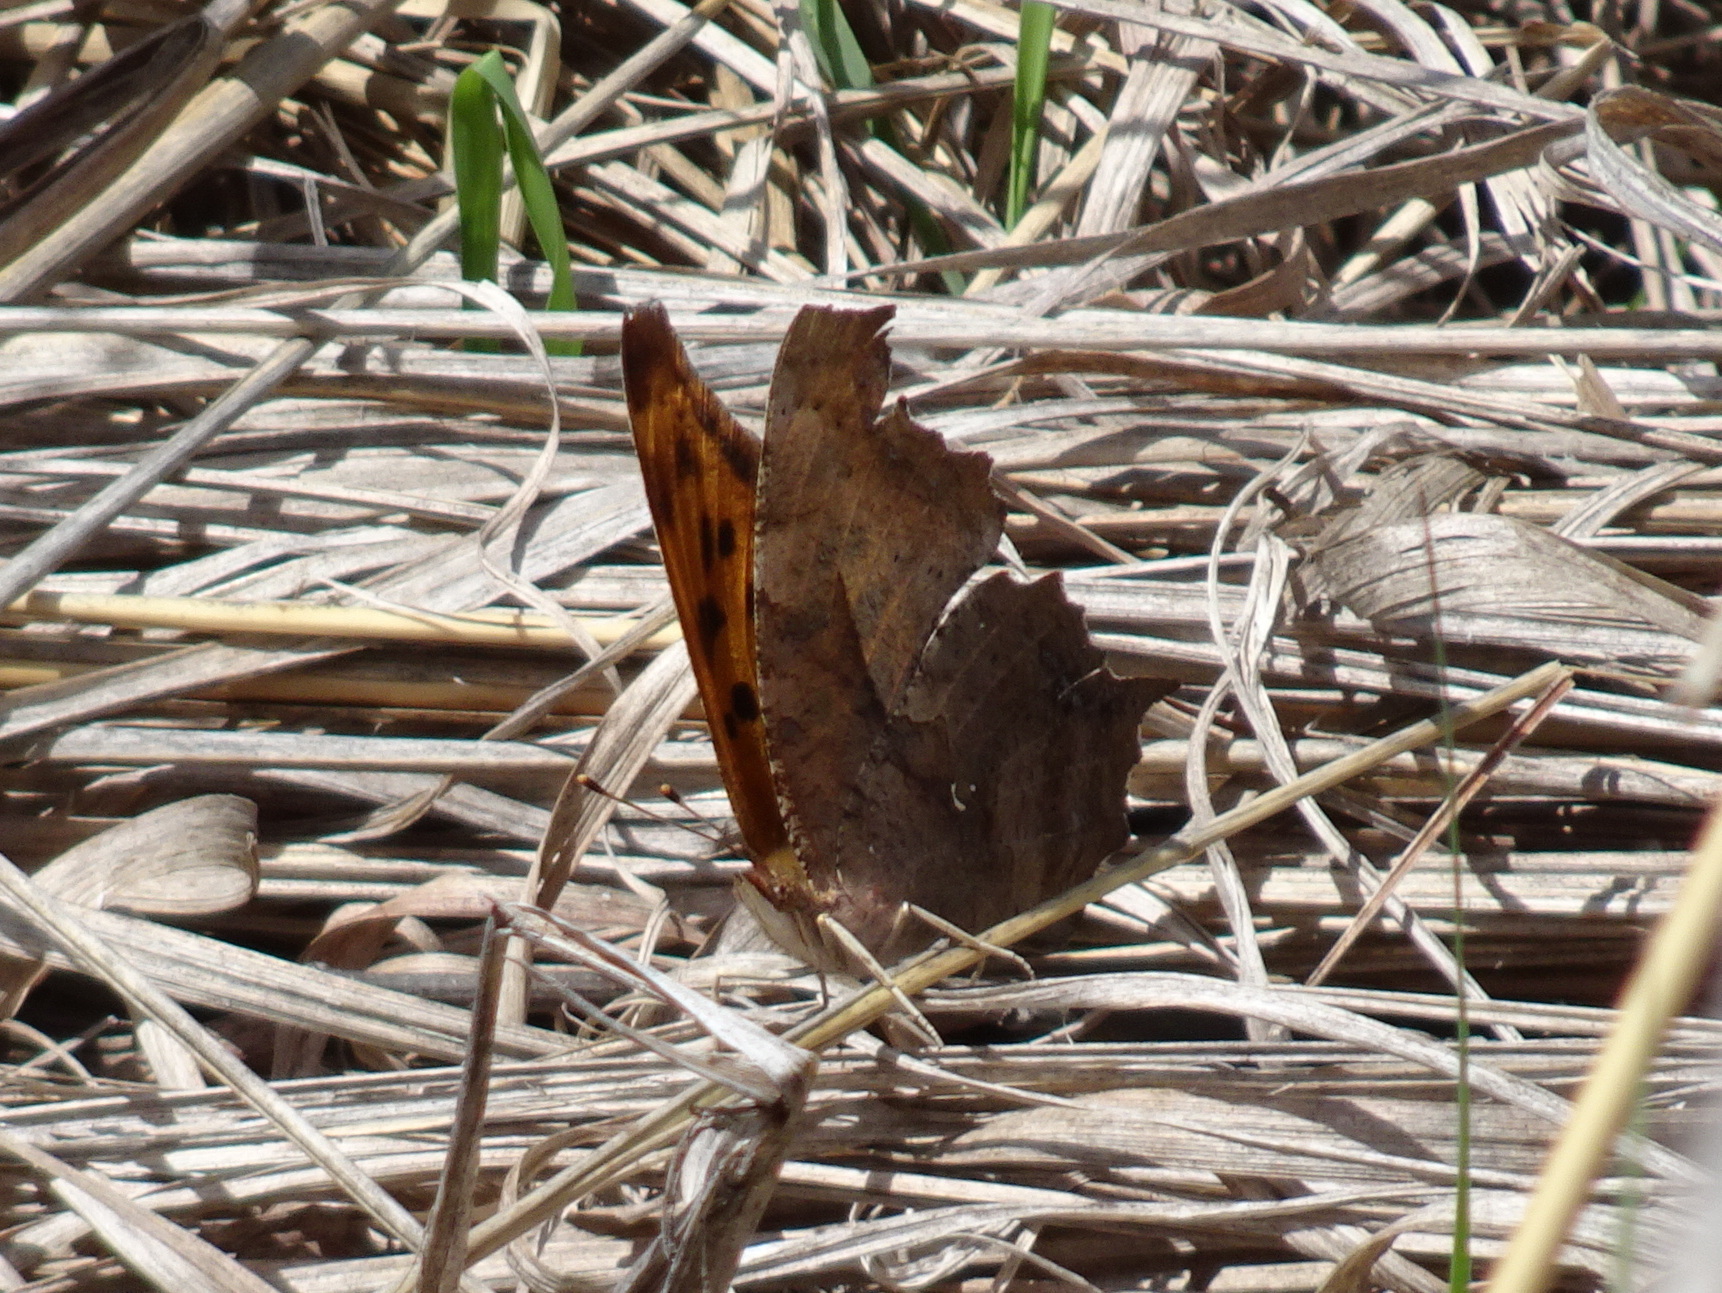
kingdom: Animalia
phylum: Arthropoda
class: Insecta
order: Lepidoptera
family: Nymphalidae
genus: Polygonia
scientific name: Polygonia interrogationis
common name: Question mark
